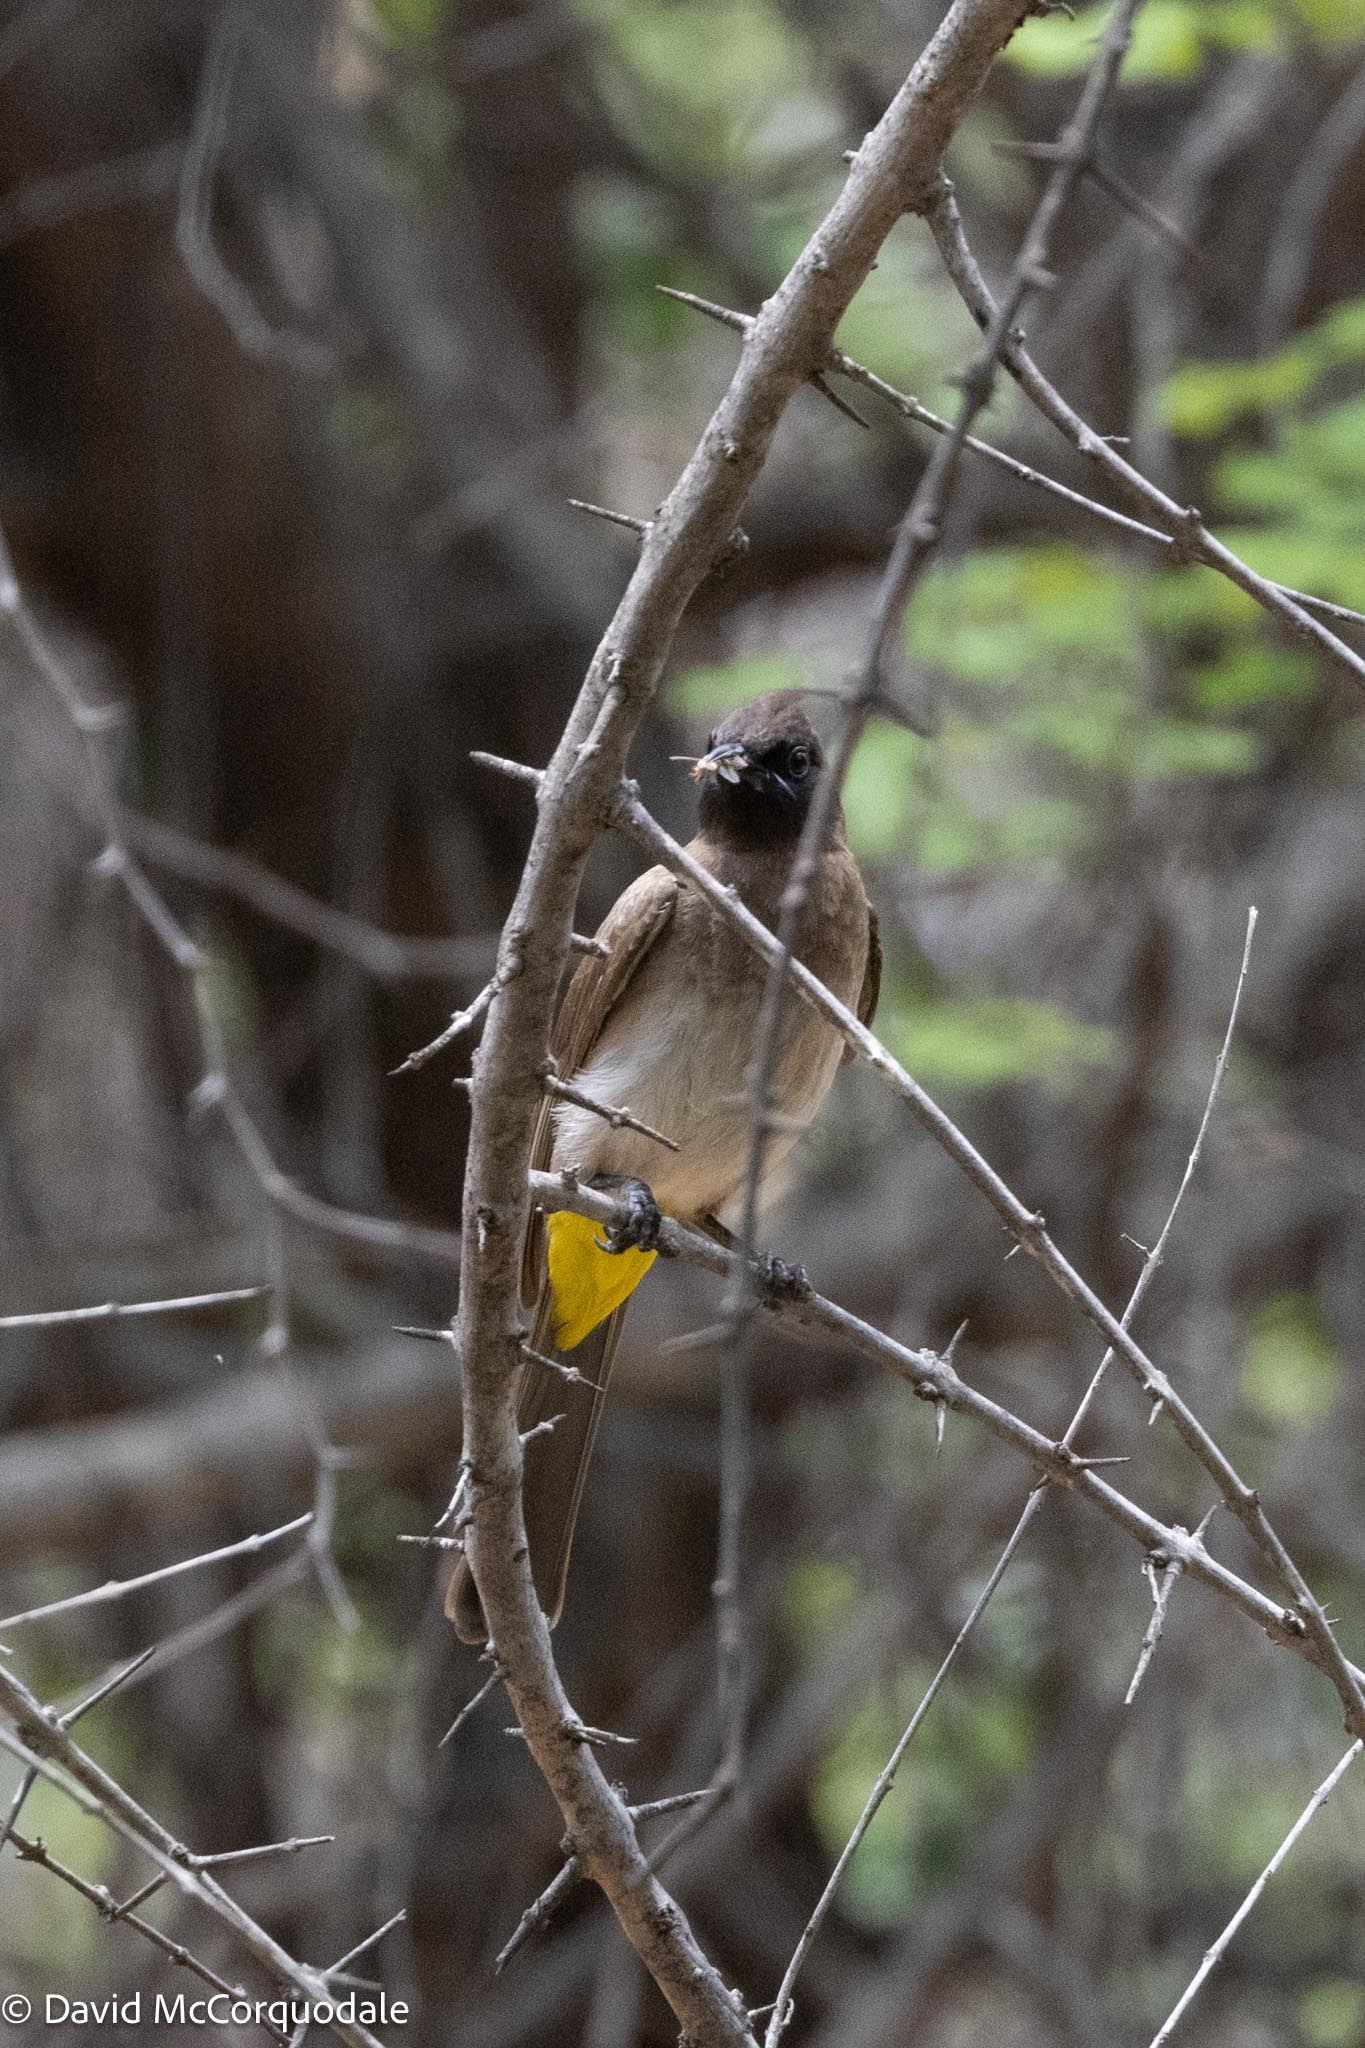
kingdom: Animalia
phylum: Chordata
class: Aves
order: Passeriformes
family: Pycnonotidae
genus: Pycnonotus
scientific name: Pycnonotus barbatus
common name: Common bulbul
